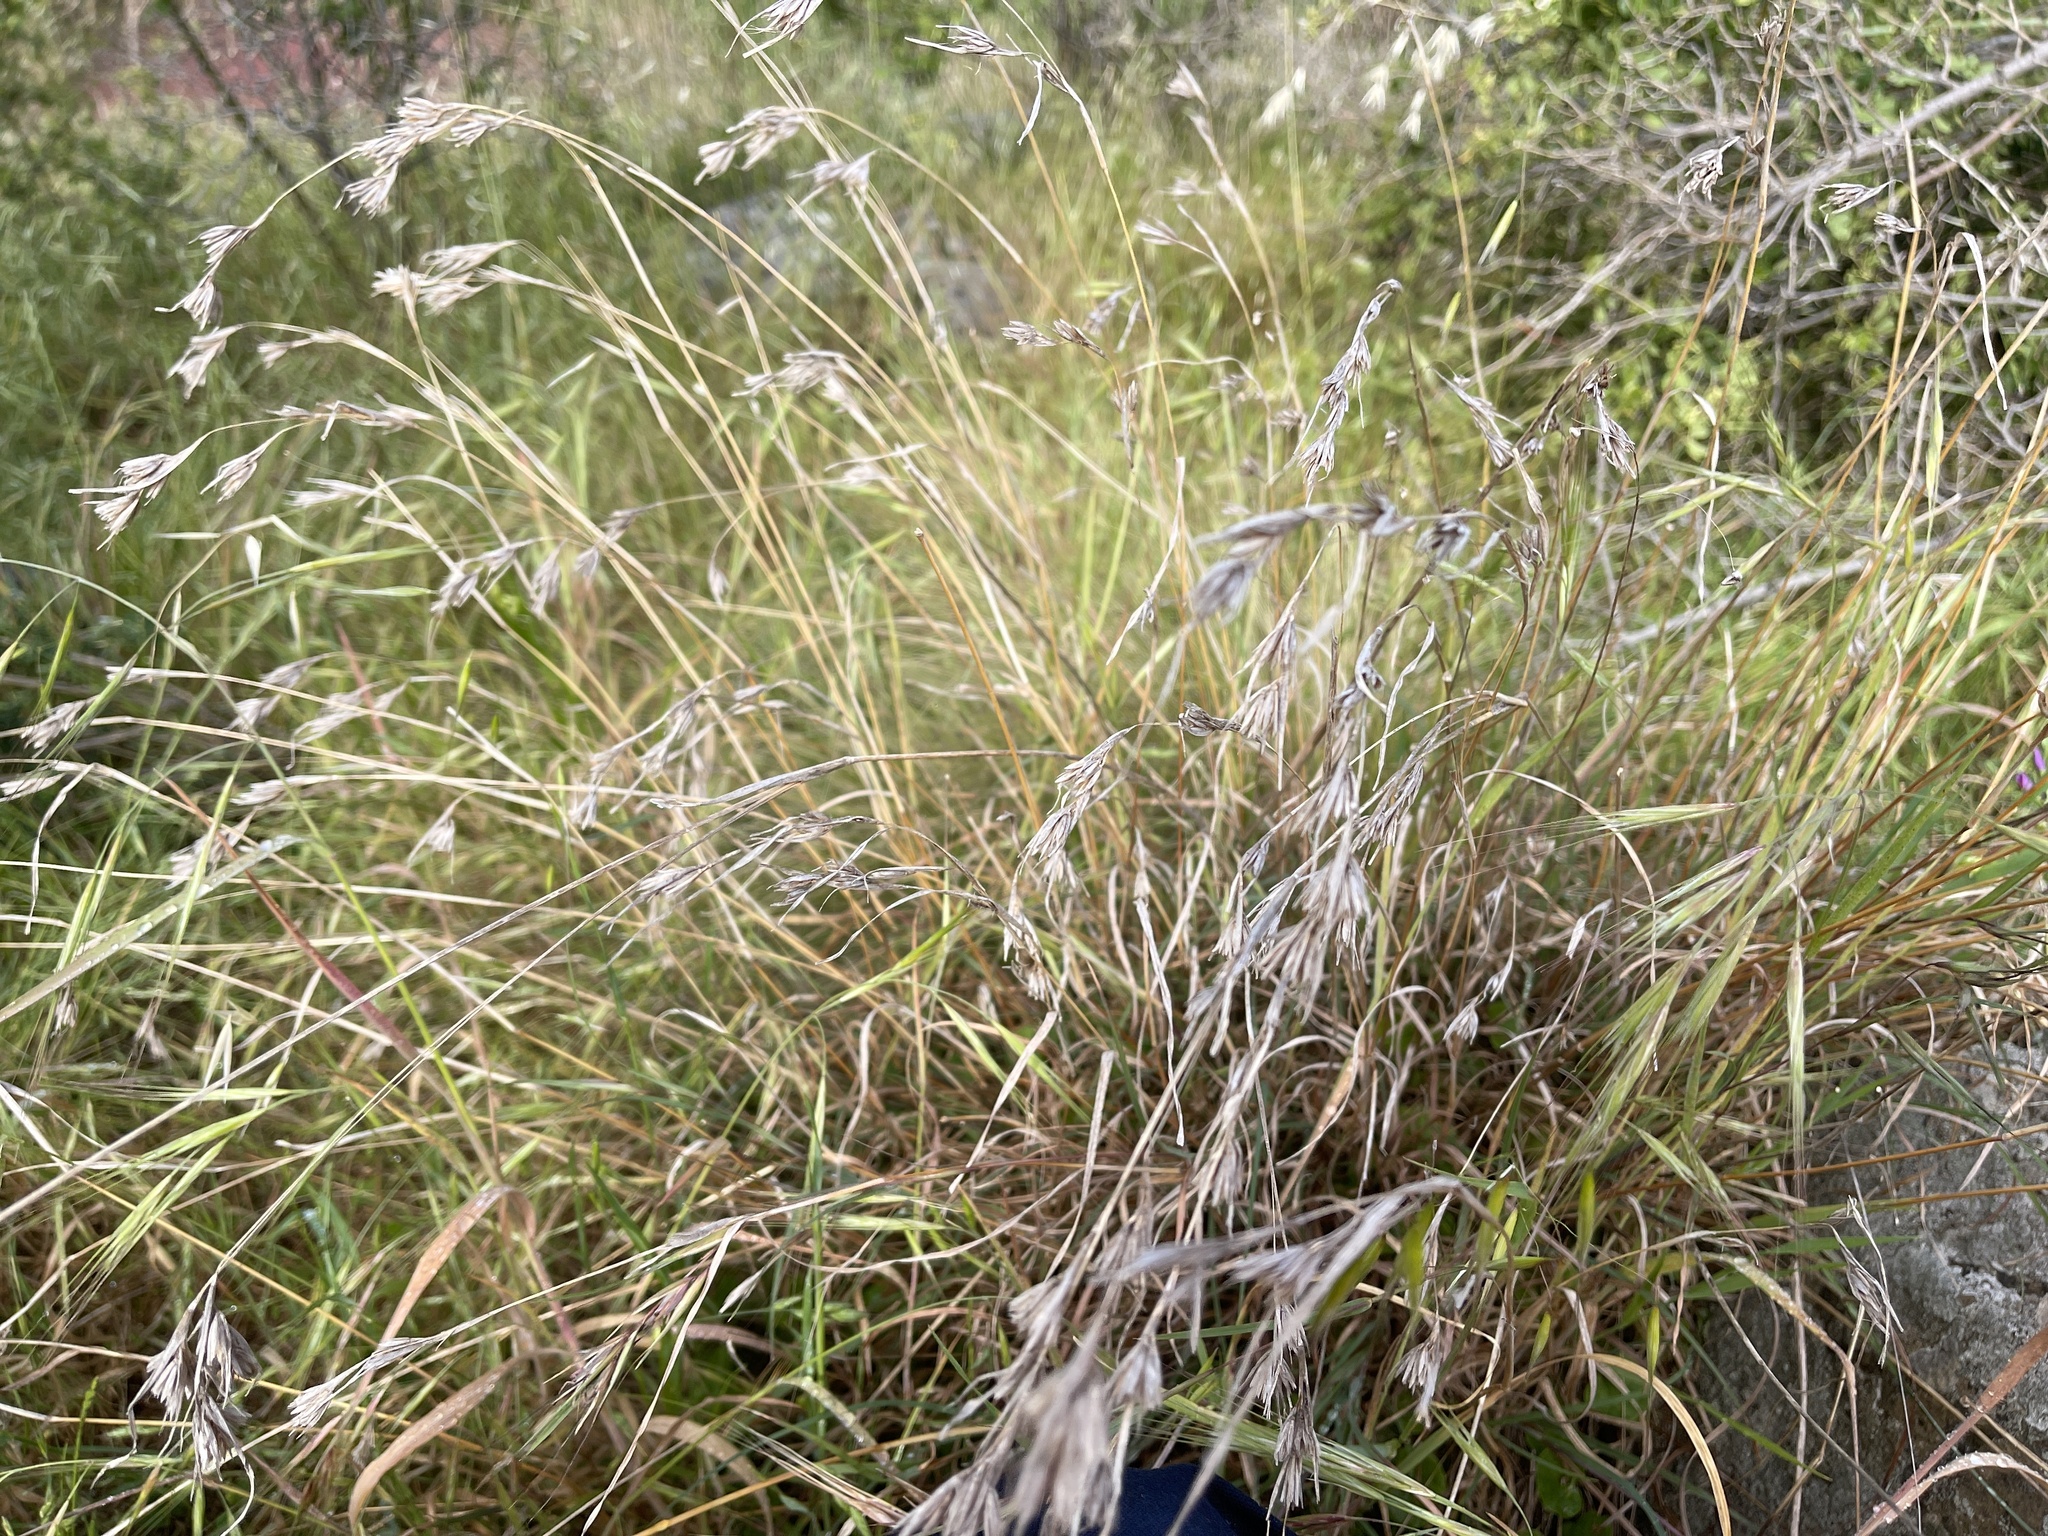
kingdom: Plantae
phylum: Tracheophyta
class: Liliopsida
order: Poales
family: Poaceae
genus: Themeda
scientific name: Themeda triandra
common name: Kangaroo grass
